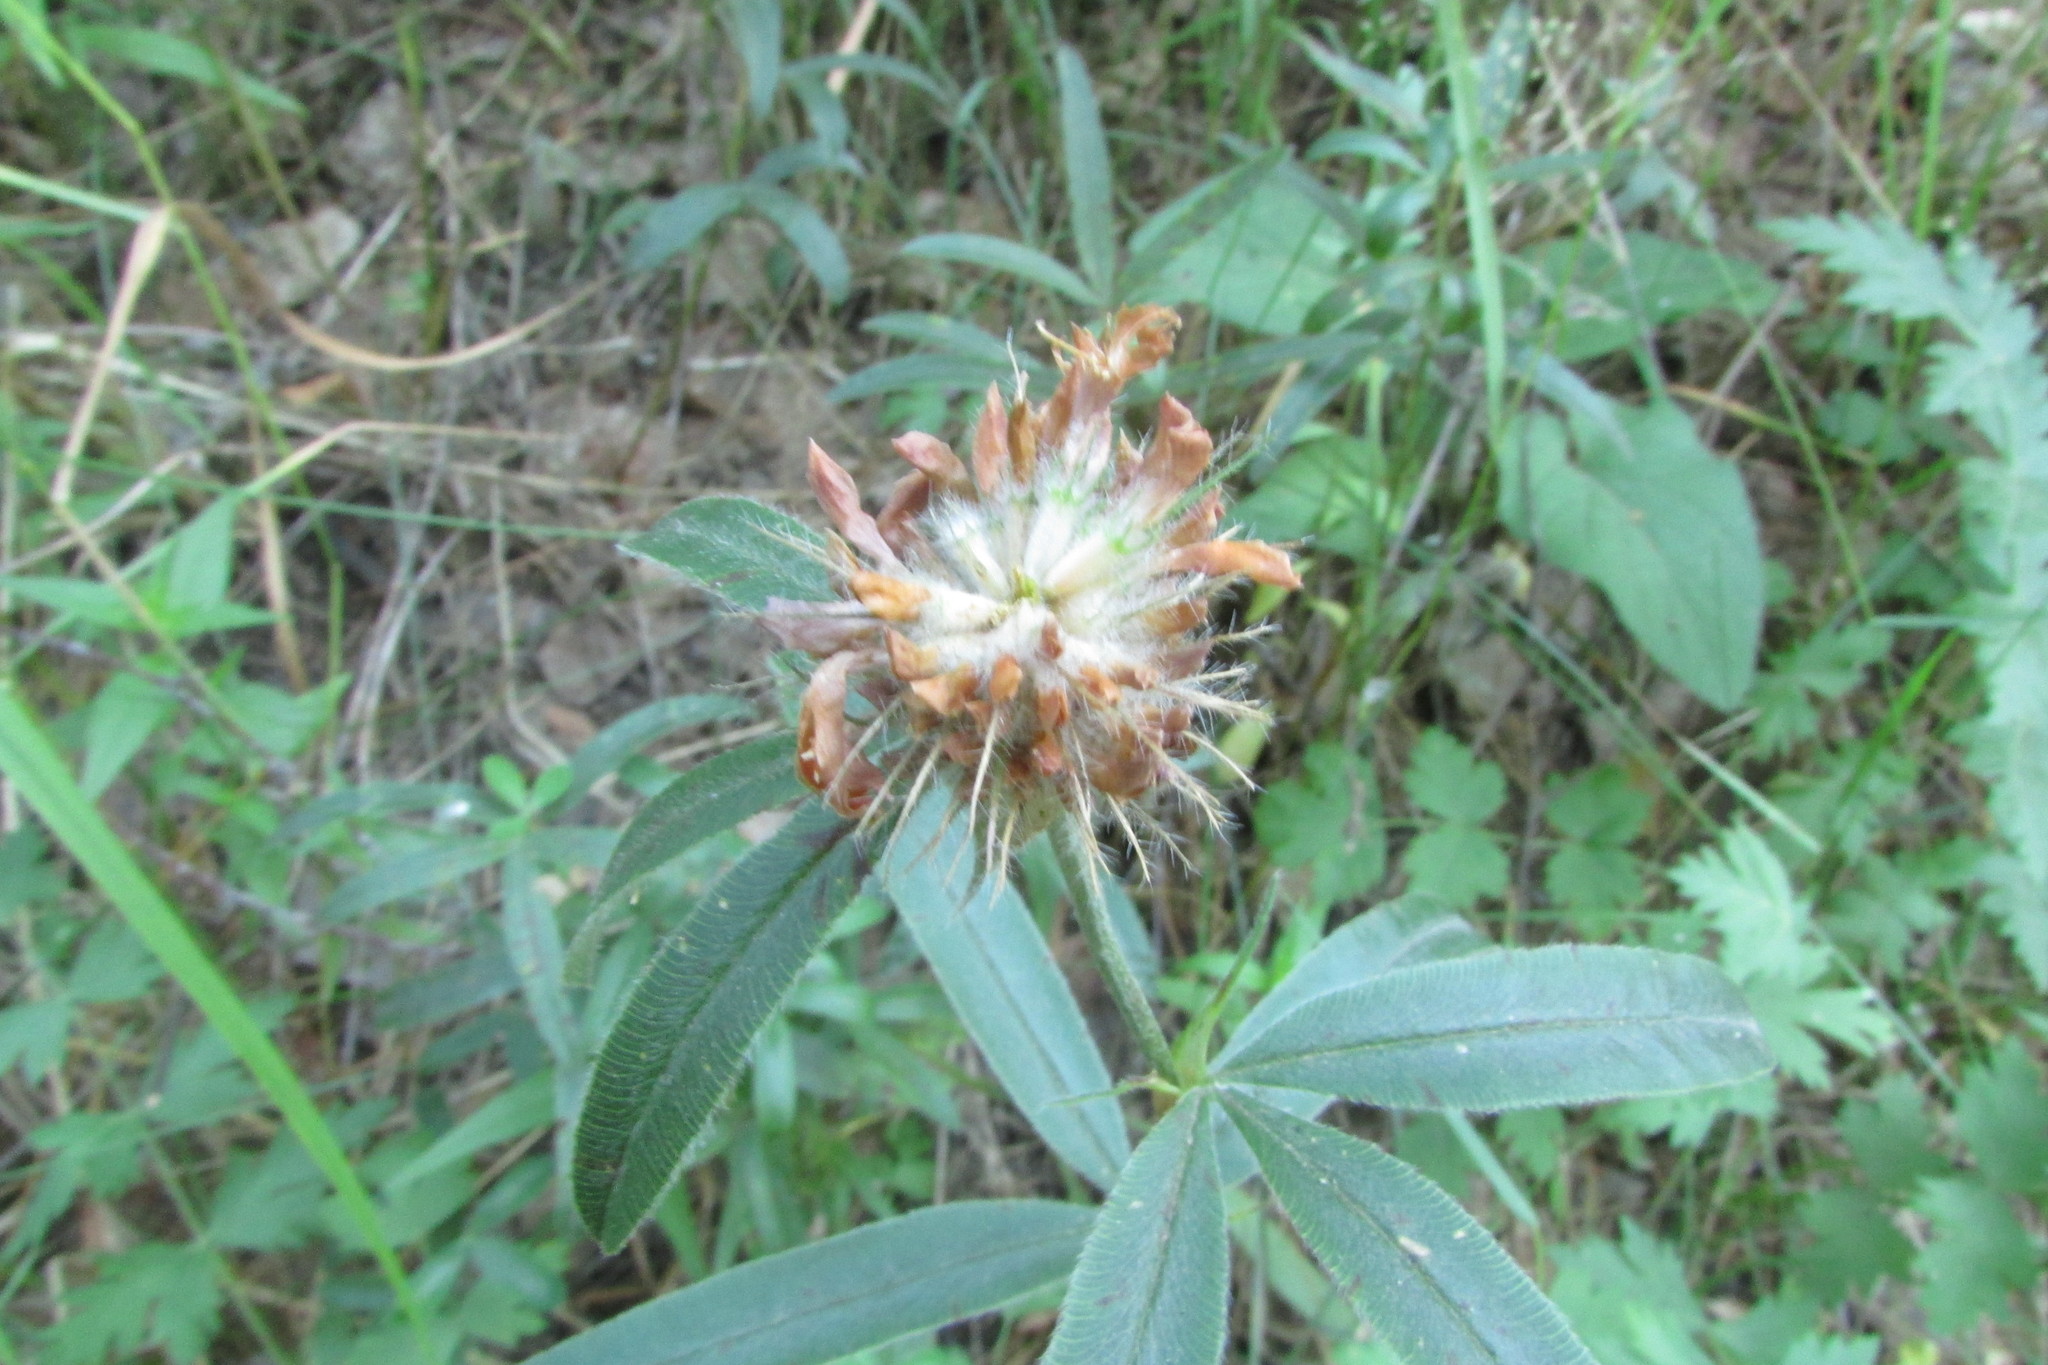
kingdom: Plantae
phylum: Tracheophyta
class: Magnoliopsida
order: Fabales
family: Fabaceae
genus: Trifolium
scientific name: Trifolium alpestre
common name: Owl-head clover
